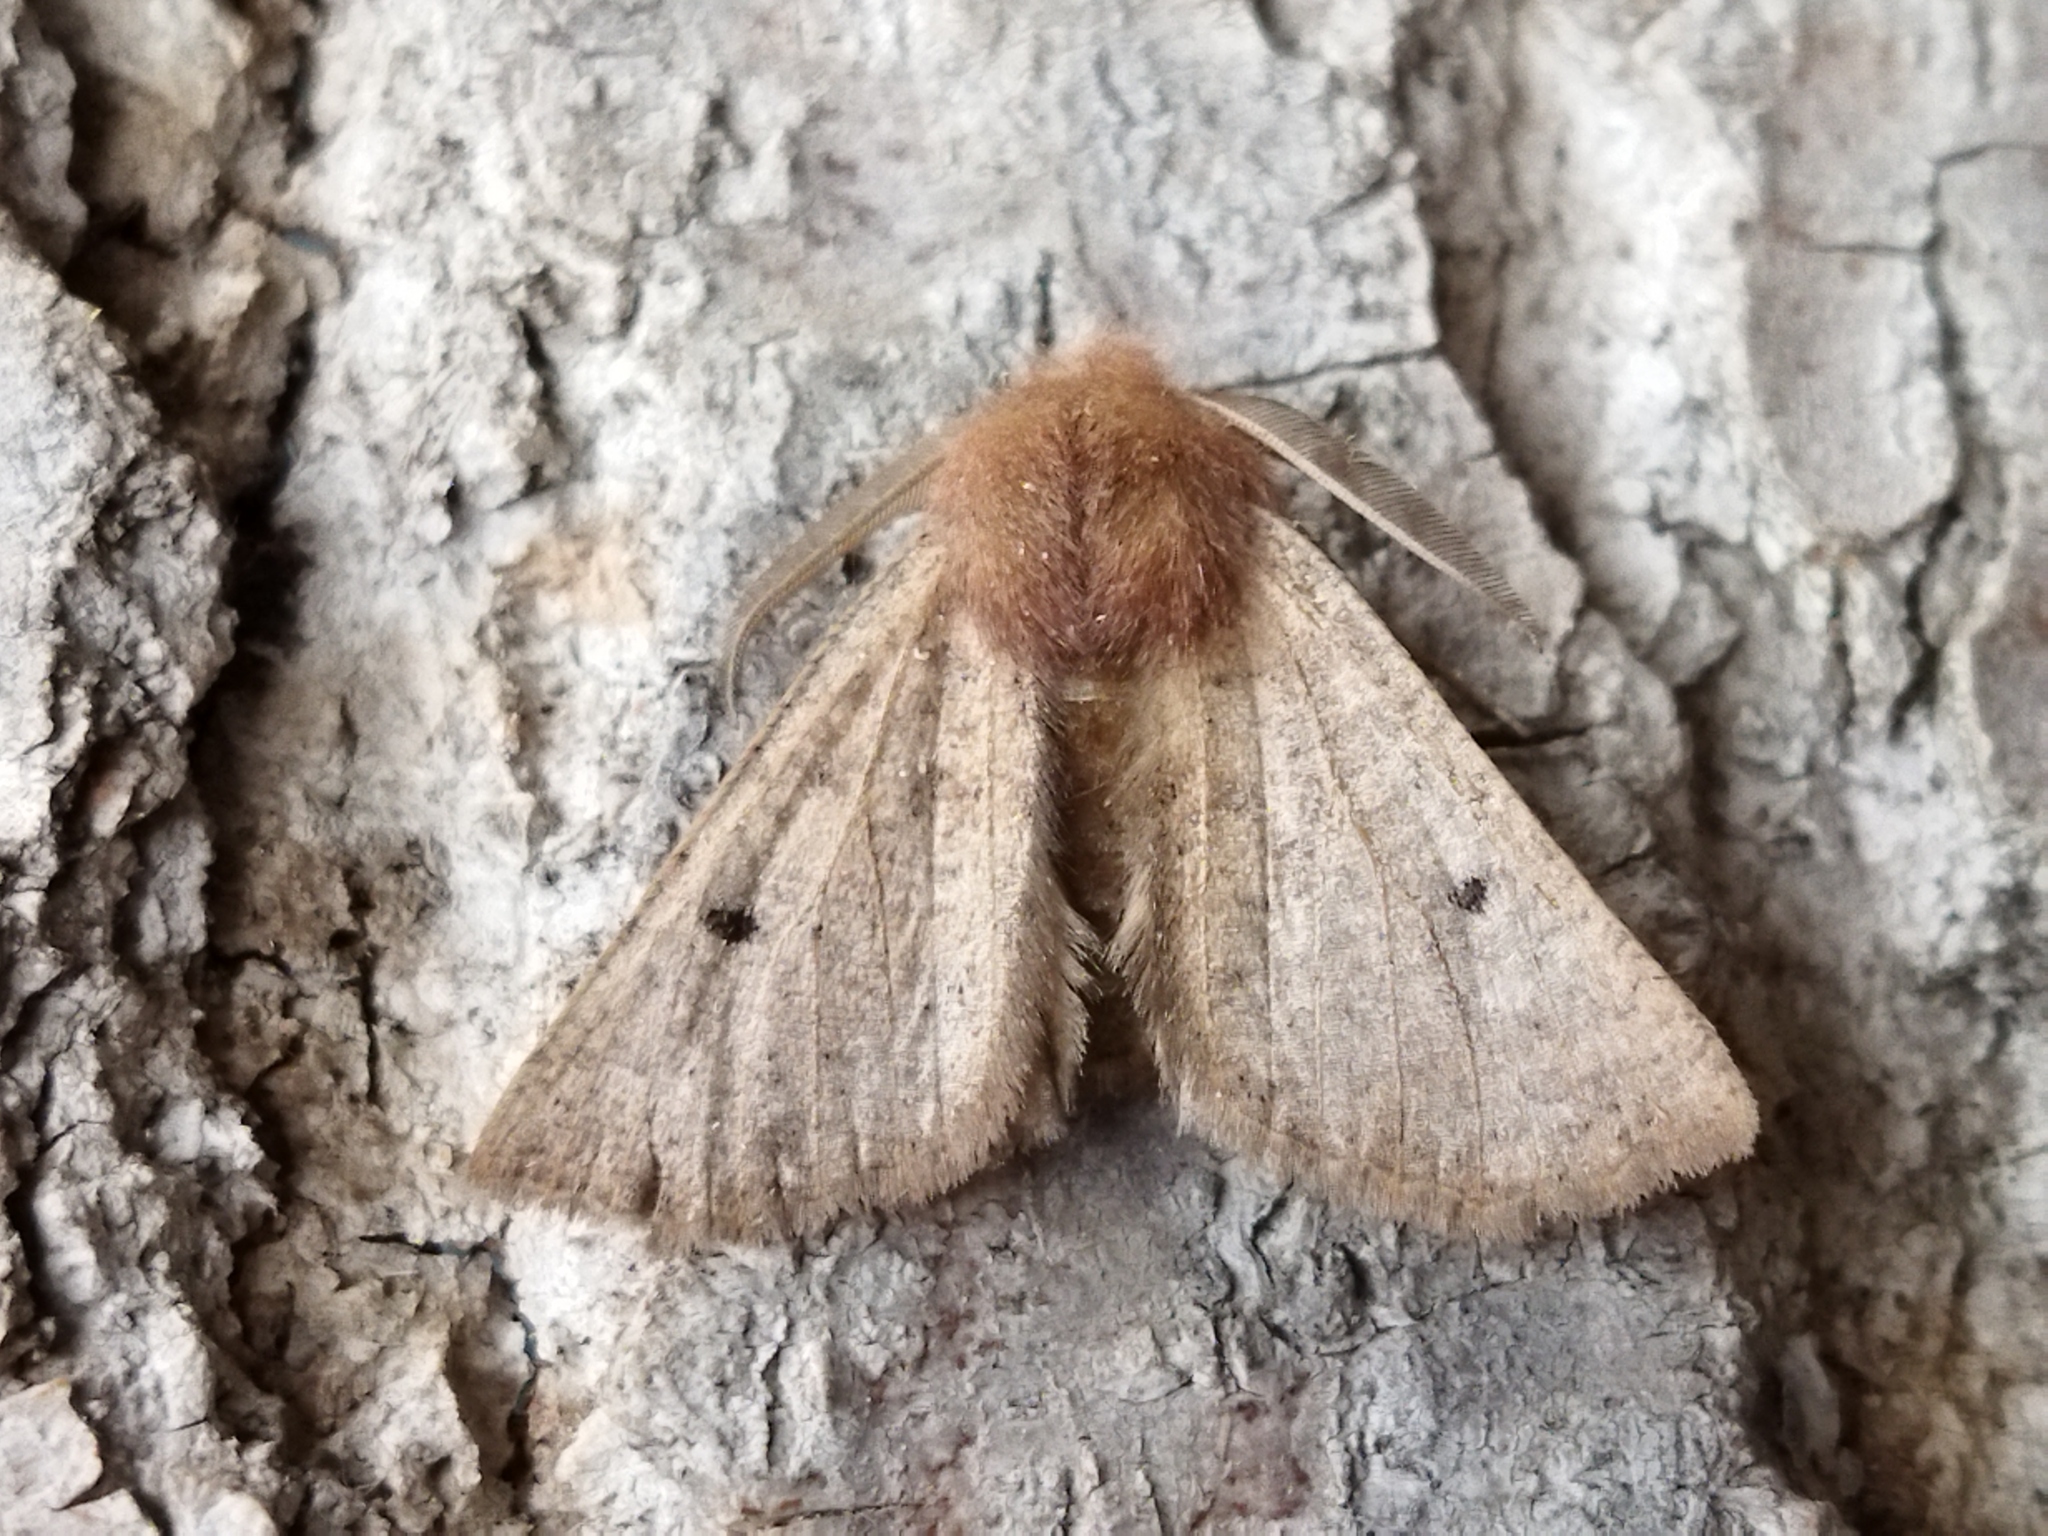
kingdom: Animalia
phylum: Arthropoda
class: Insecta
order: Lepidoptera
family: Geometridae
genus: Dasycorsa
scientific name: Dasycorsa modesta
